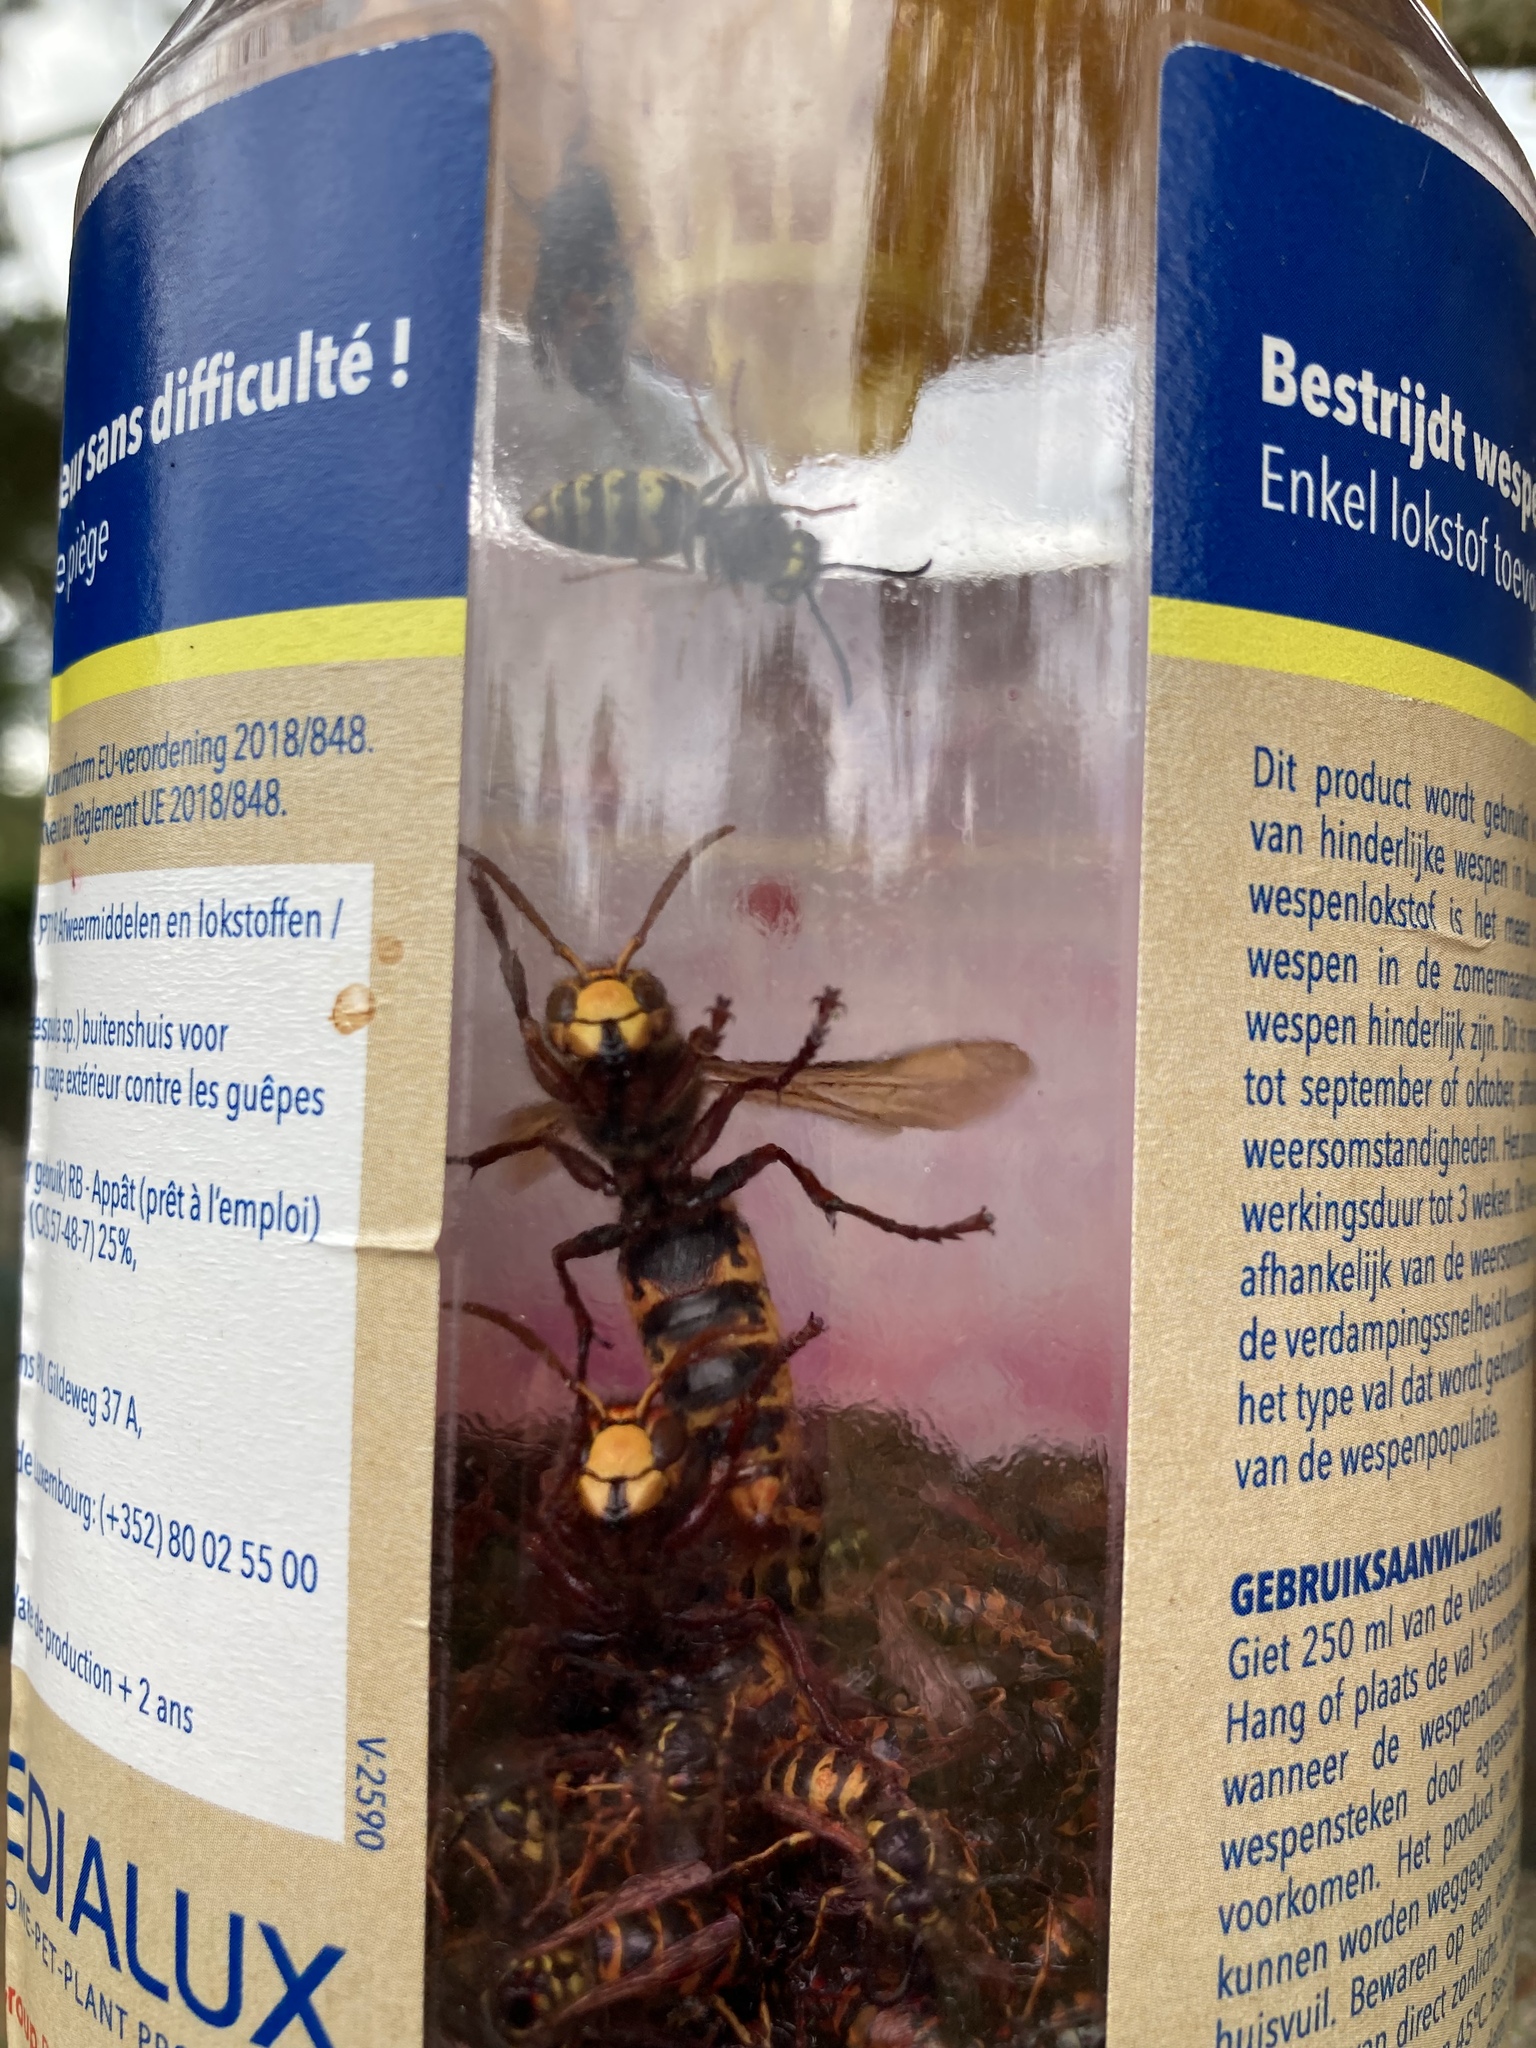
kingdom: Animalia
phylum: Arthropoda
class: Insecta
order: Hymenoptera
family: Vespidae
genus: Vespa
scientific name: Vespa crabro
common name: Hornet
